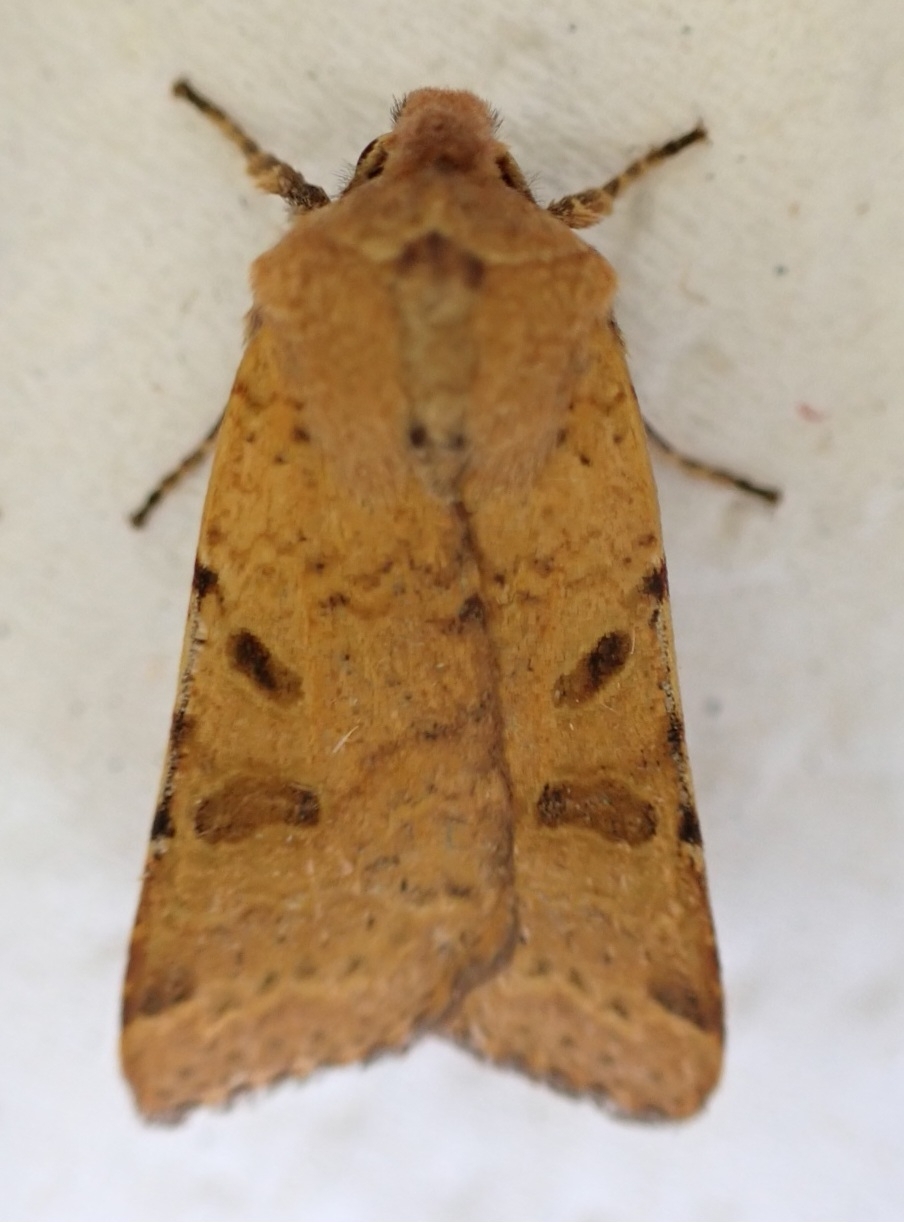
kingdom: Animalia
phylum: Arthropoda
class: Insecta
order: Lepidoptera
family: Noctuidae
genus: Agrochola
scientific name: Agrochola lychnidis
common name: Beaded chestnut
